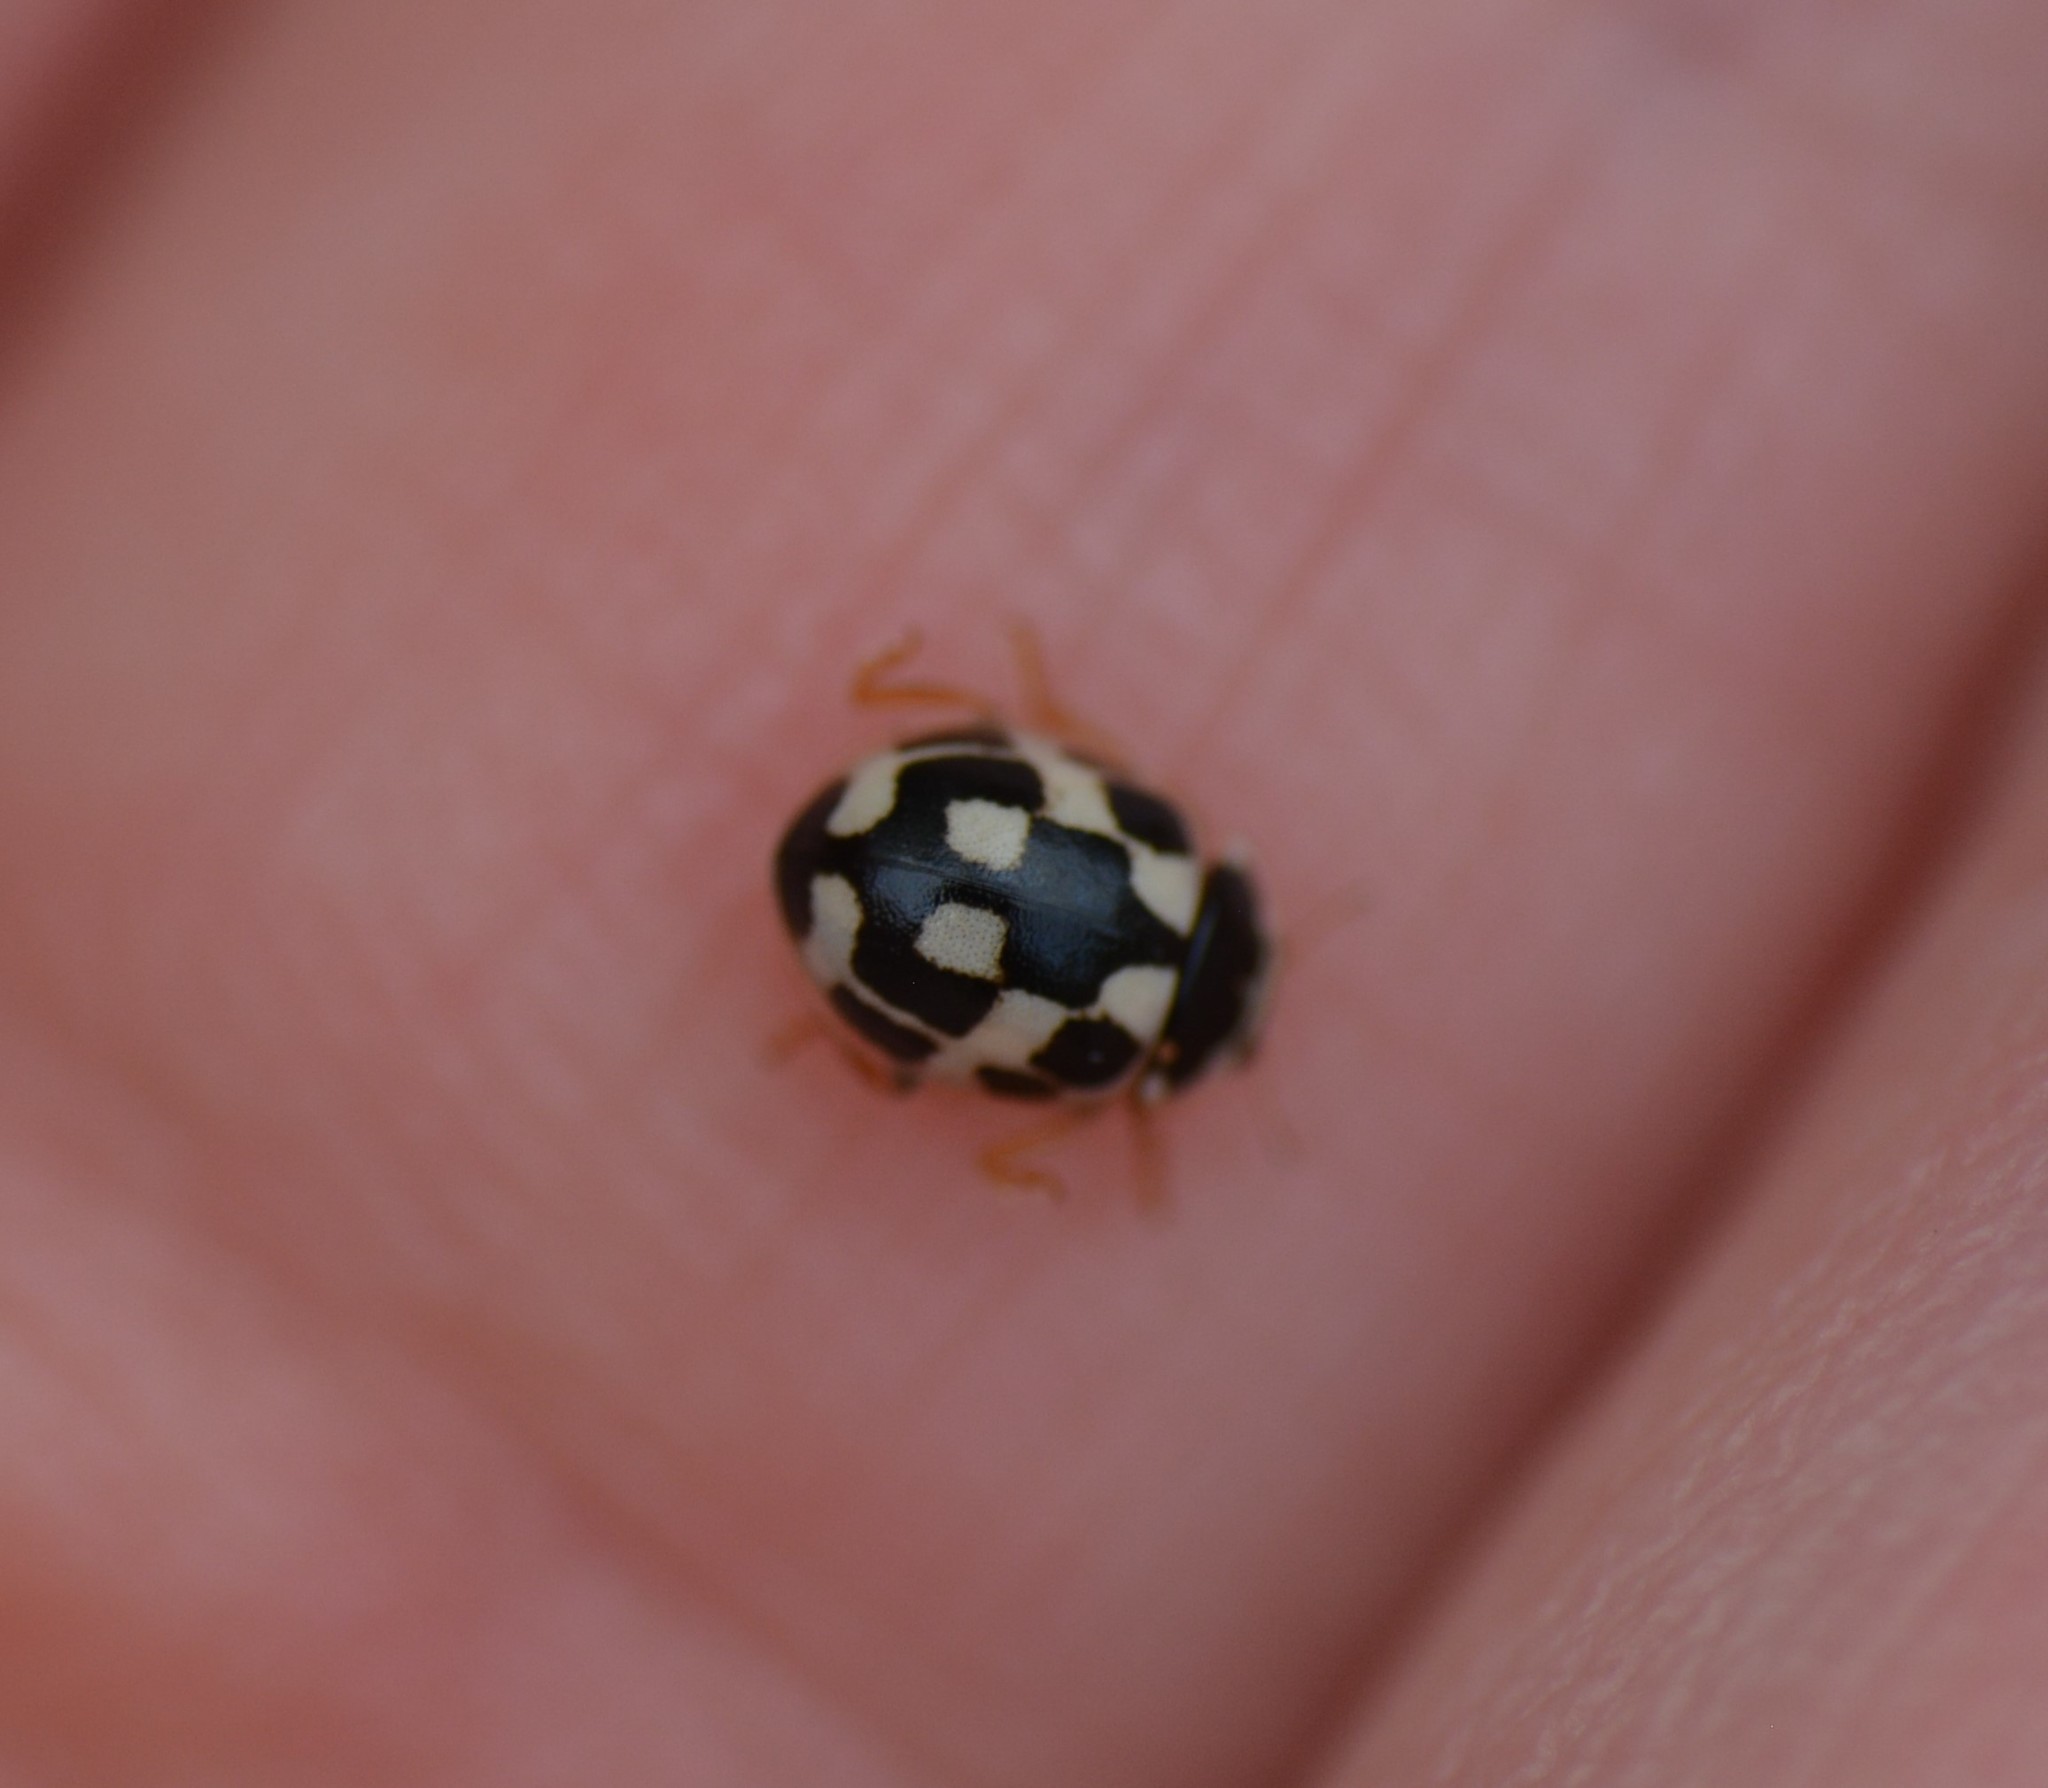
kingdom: Animalia
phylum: Arthropoda
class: Insecta
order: Coleoptera
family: Coccinellidae
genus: Propylaea
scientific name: Propylaea quatuordecimpunctata
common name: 14-spotted ladybird beetle
